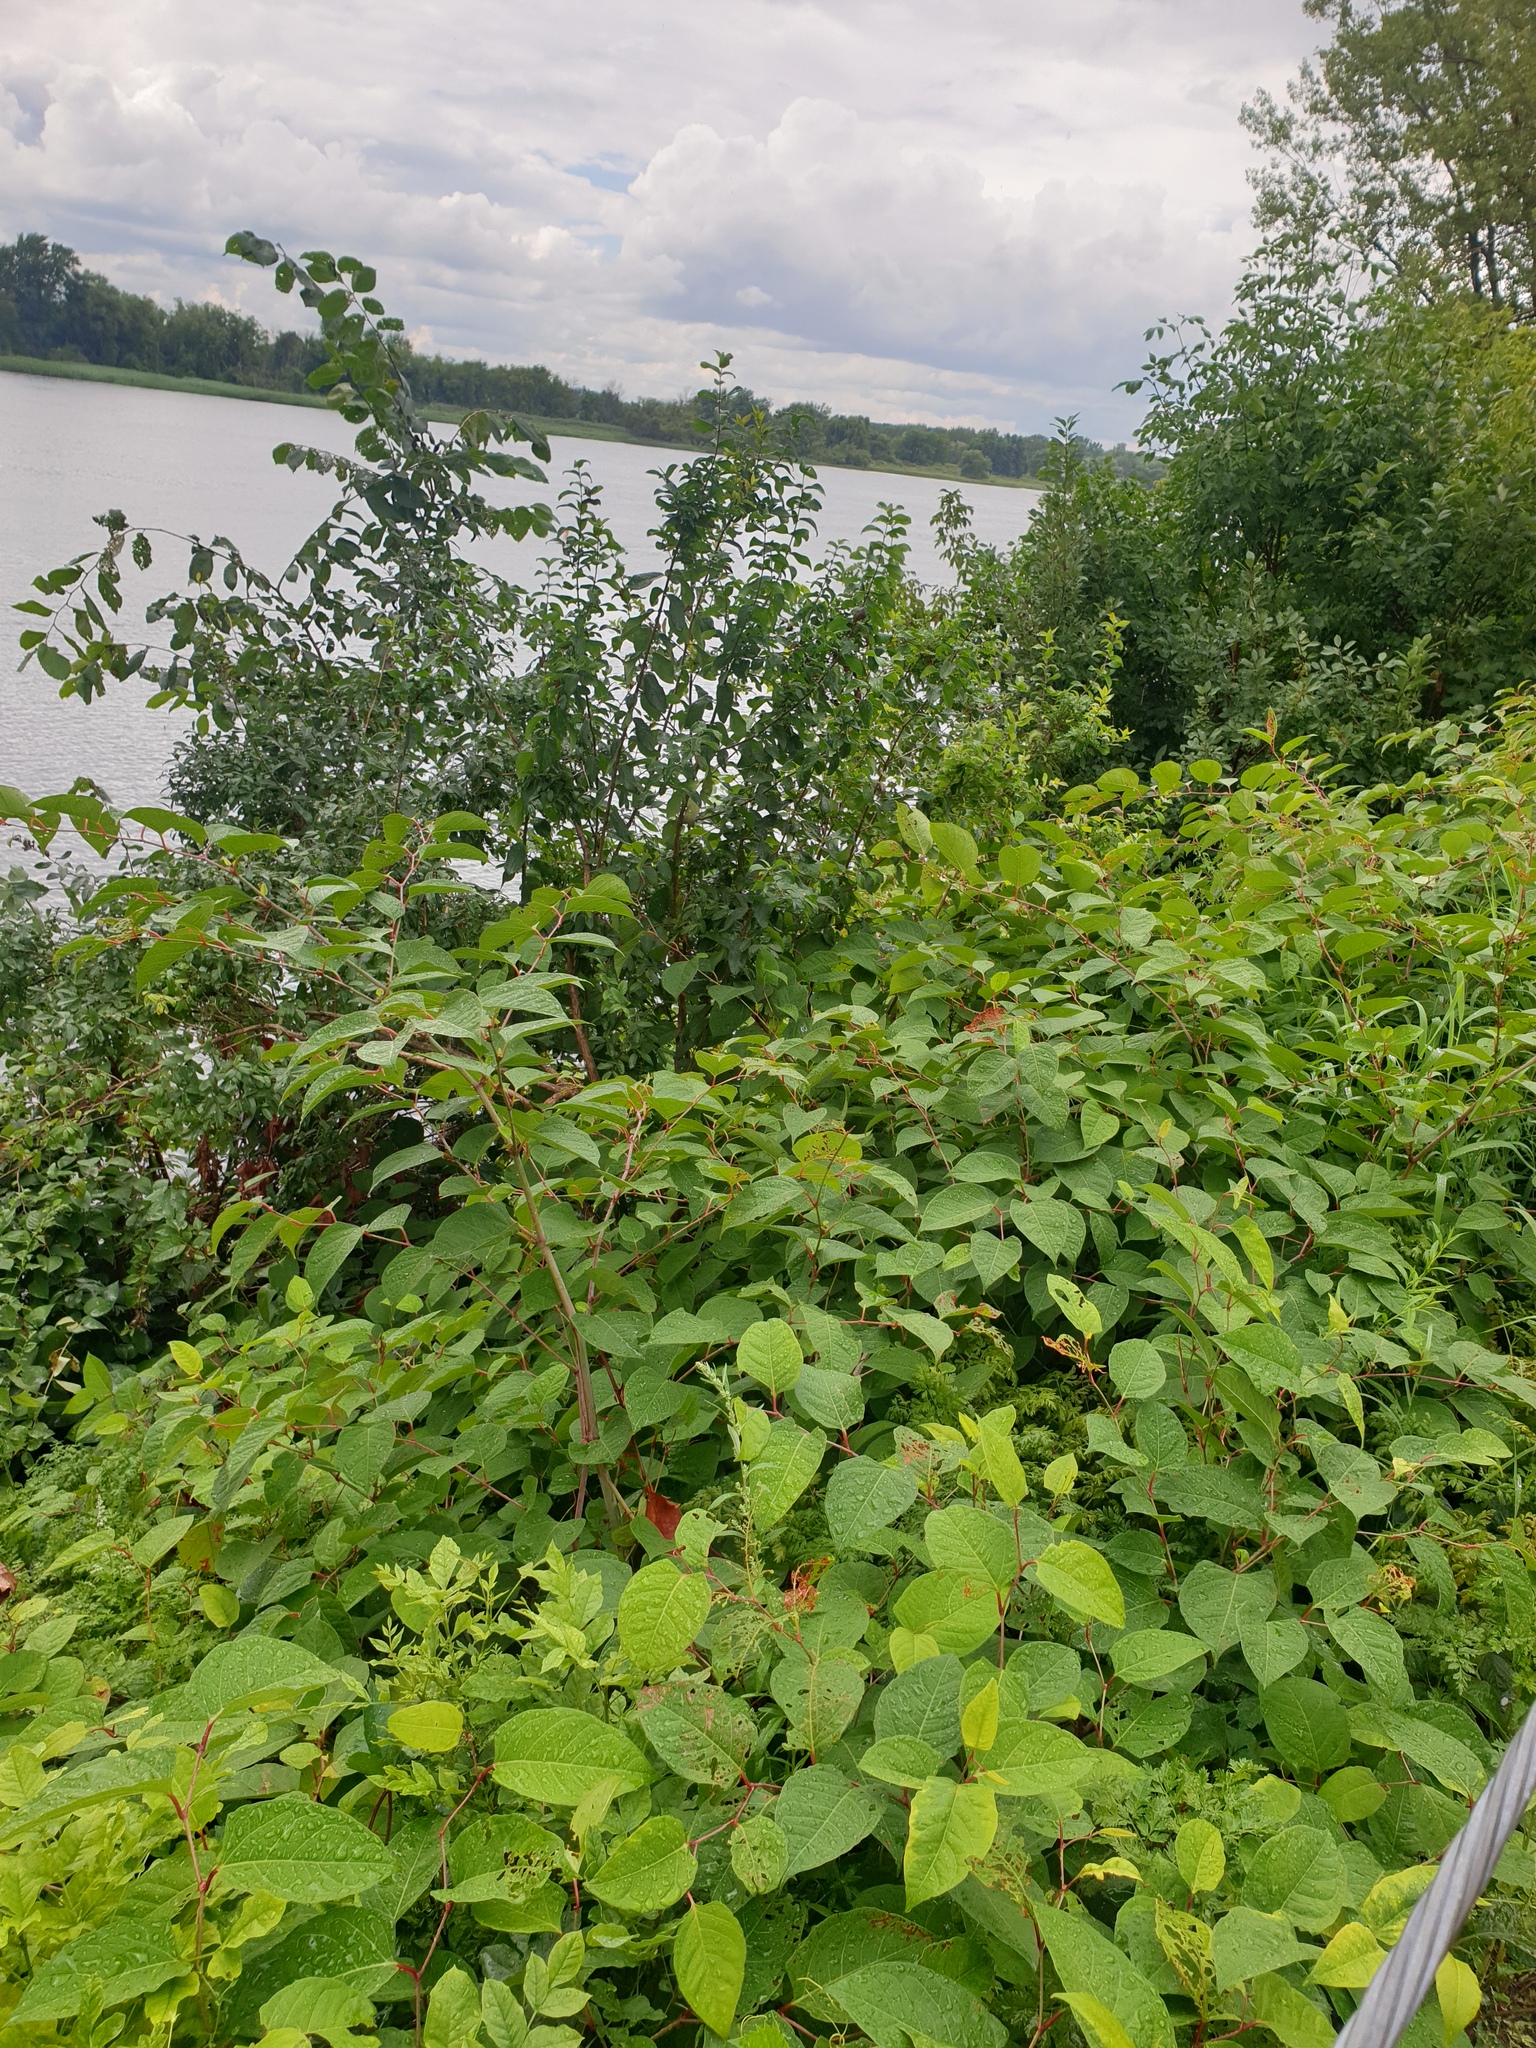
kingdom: Plantae
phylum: Tracheophyta
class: Magnoliopsida
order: Caryophyllales
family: Polygonaceae
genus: Reynoutria
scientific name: Reynoutria japonica
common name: Japanese knotweed
